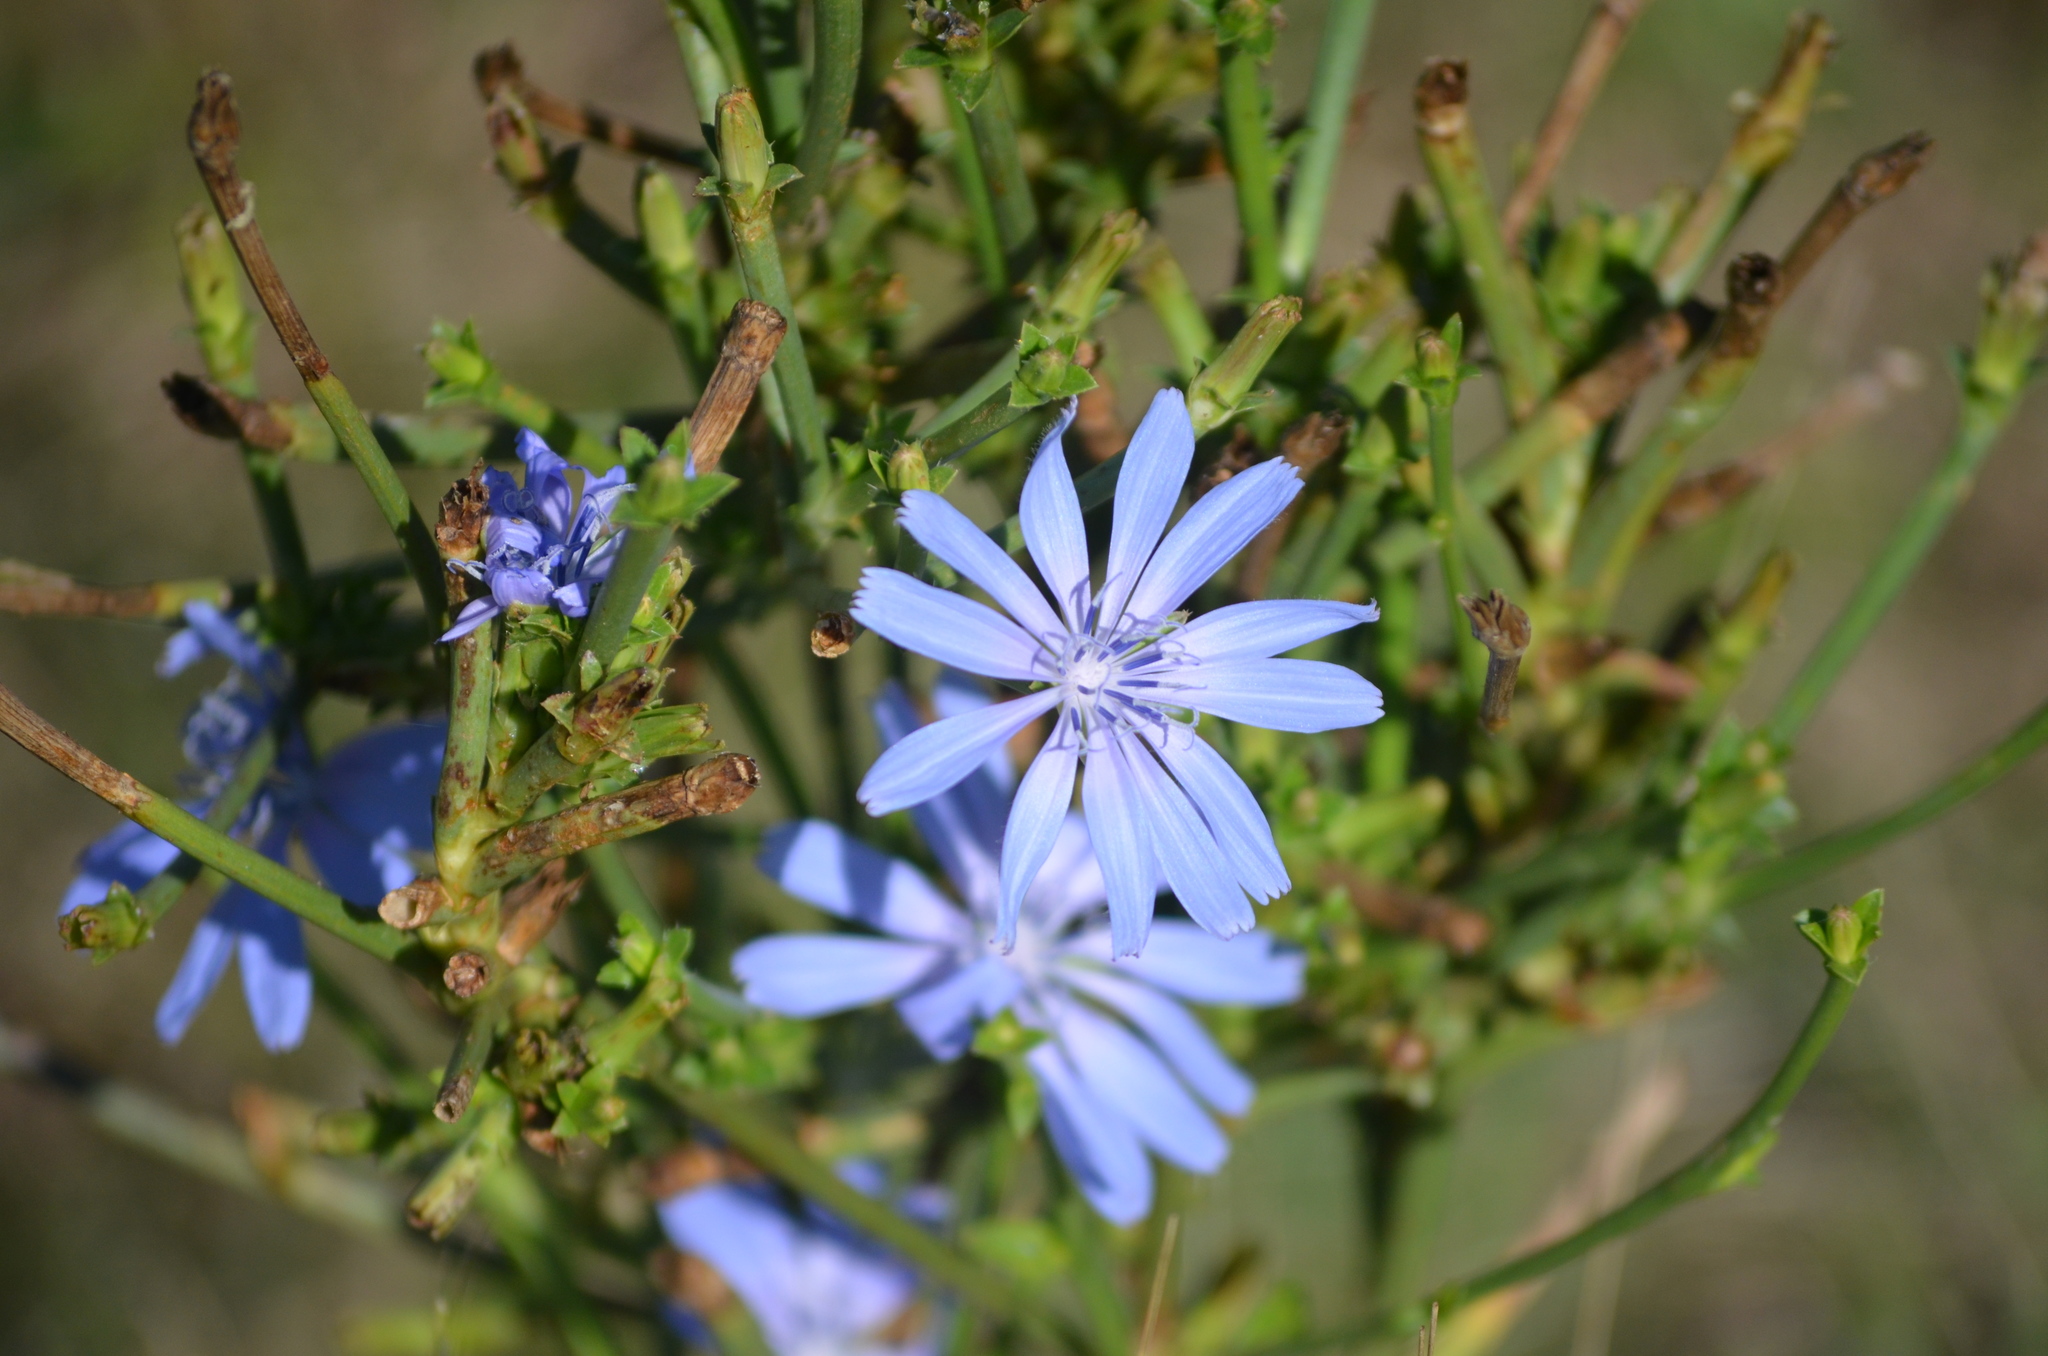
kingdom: Plantae
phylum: Tracheophyta
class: Magnoliopsida
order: Asterales
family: Asteraceae
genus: Cichorium
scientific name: Cichorium intybus
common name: Chicory
